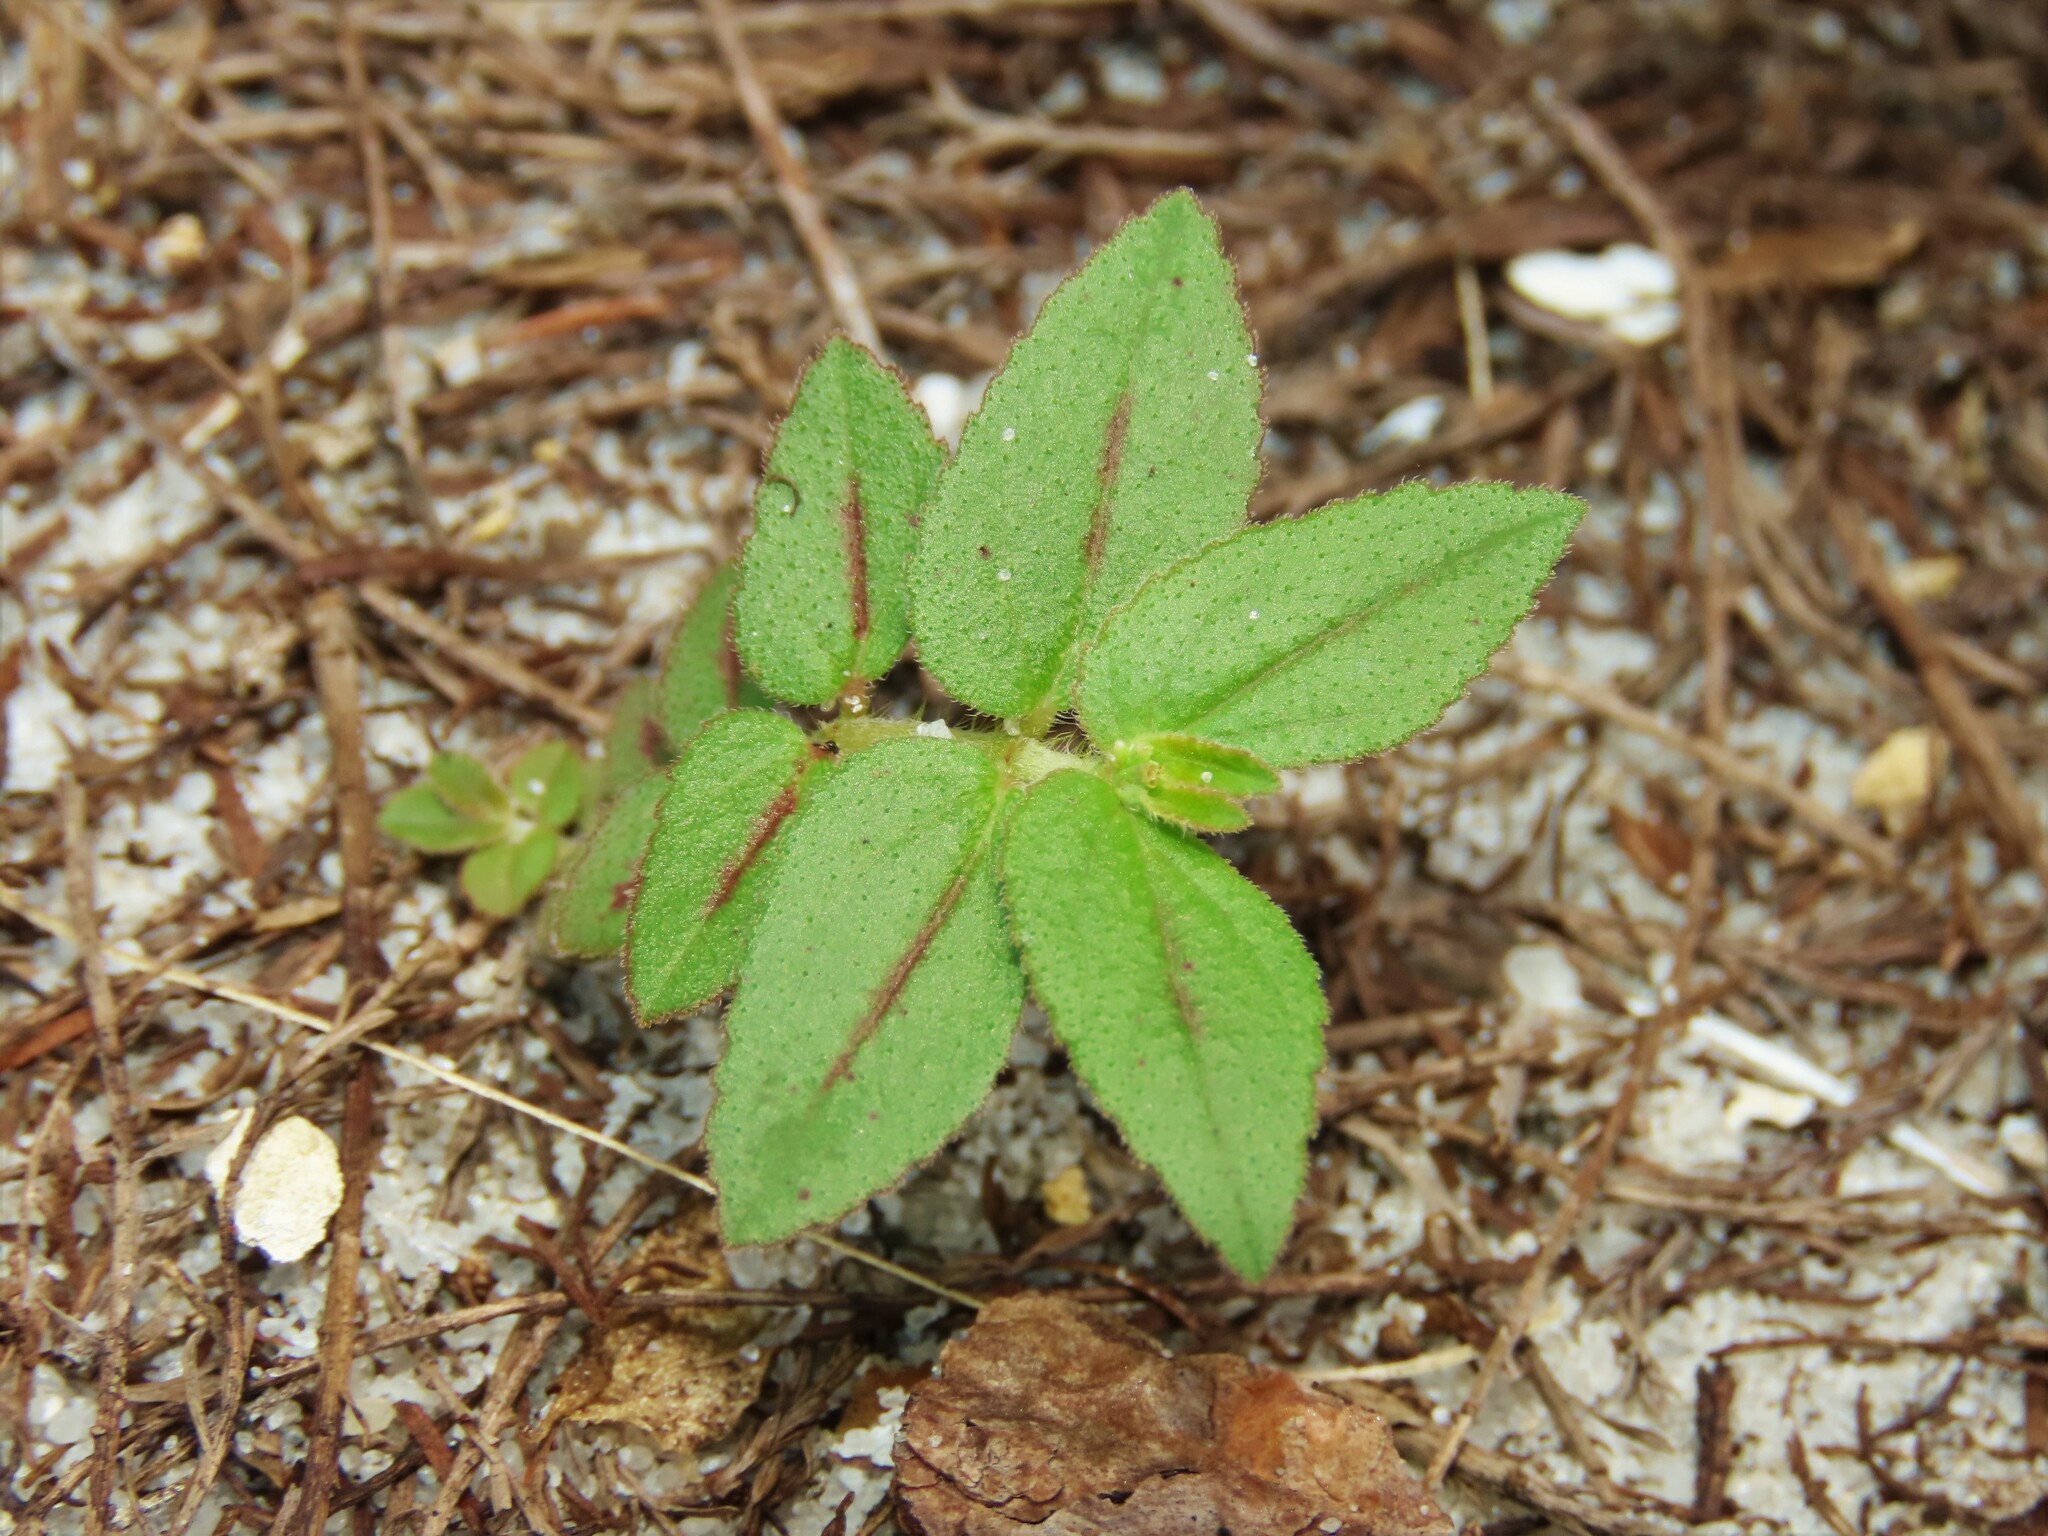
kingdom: Plantae
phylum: Tracheophyta
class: Magnoliopsida
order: Malpighiales
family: Euphorbiaceae
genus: Euphorbia
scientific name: Euphorbia hirta
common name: Pillpod sandmat
